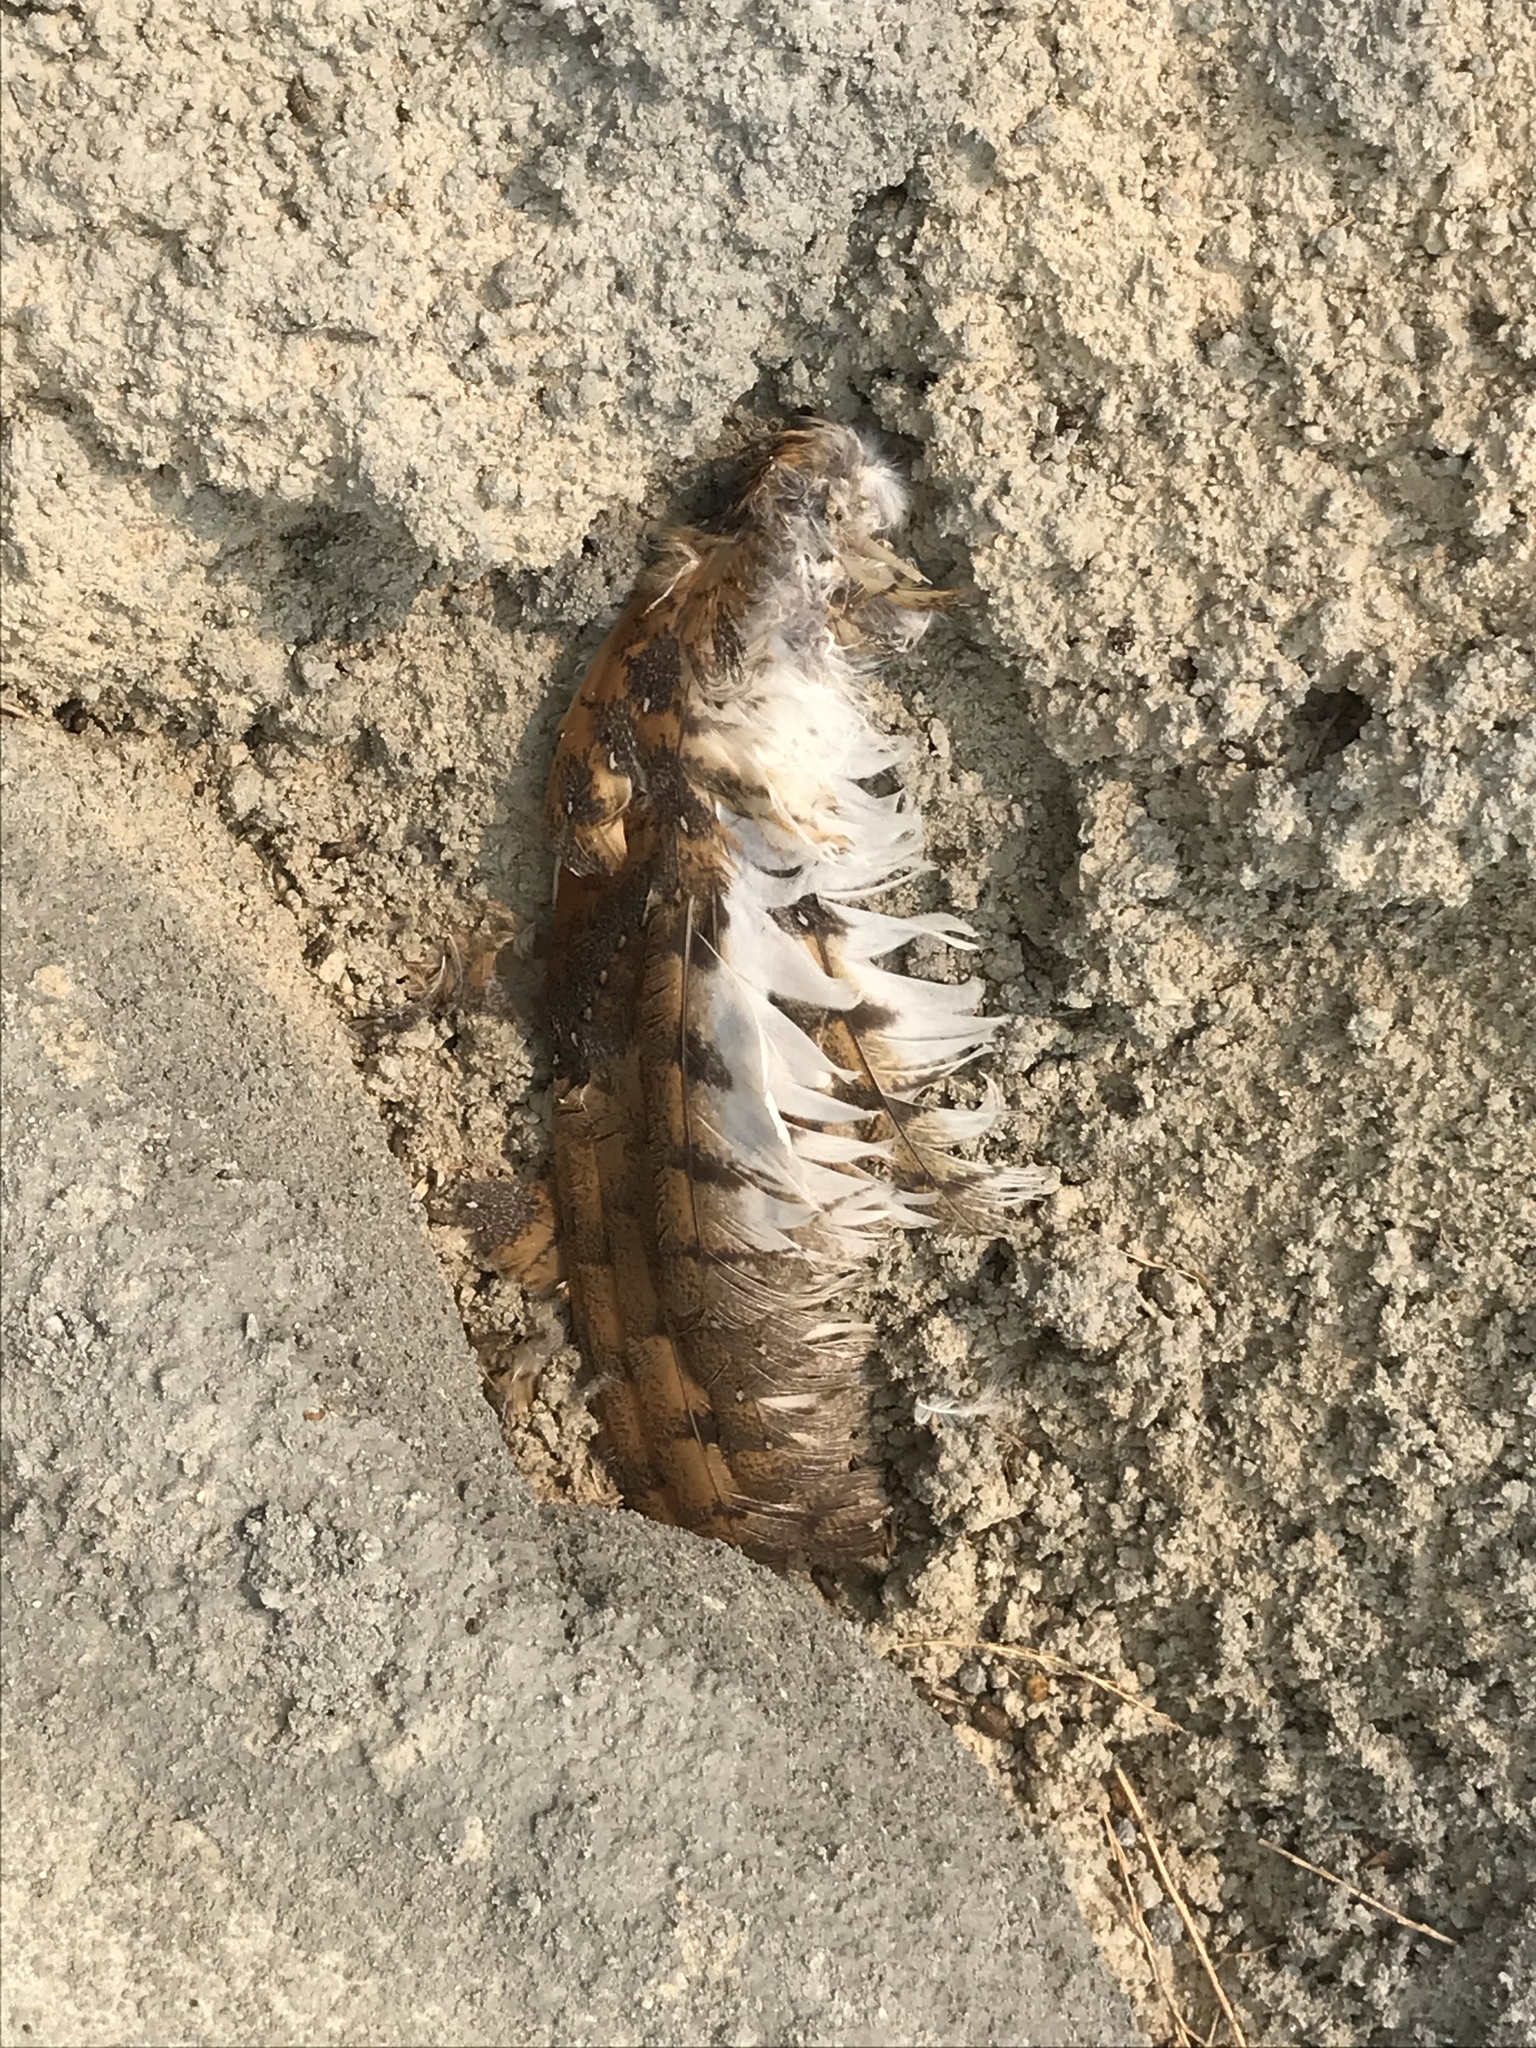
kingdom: Animalia
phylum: Chordata
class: Aves
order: Strigiformes
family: Tytonidae
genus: Tyto
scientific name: Tyto alba
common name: Barn owl
